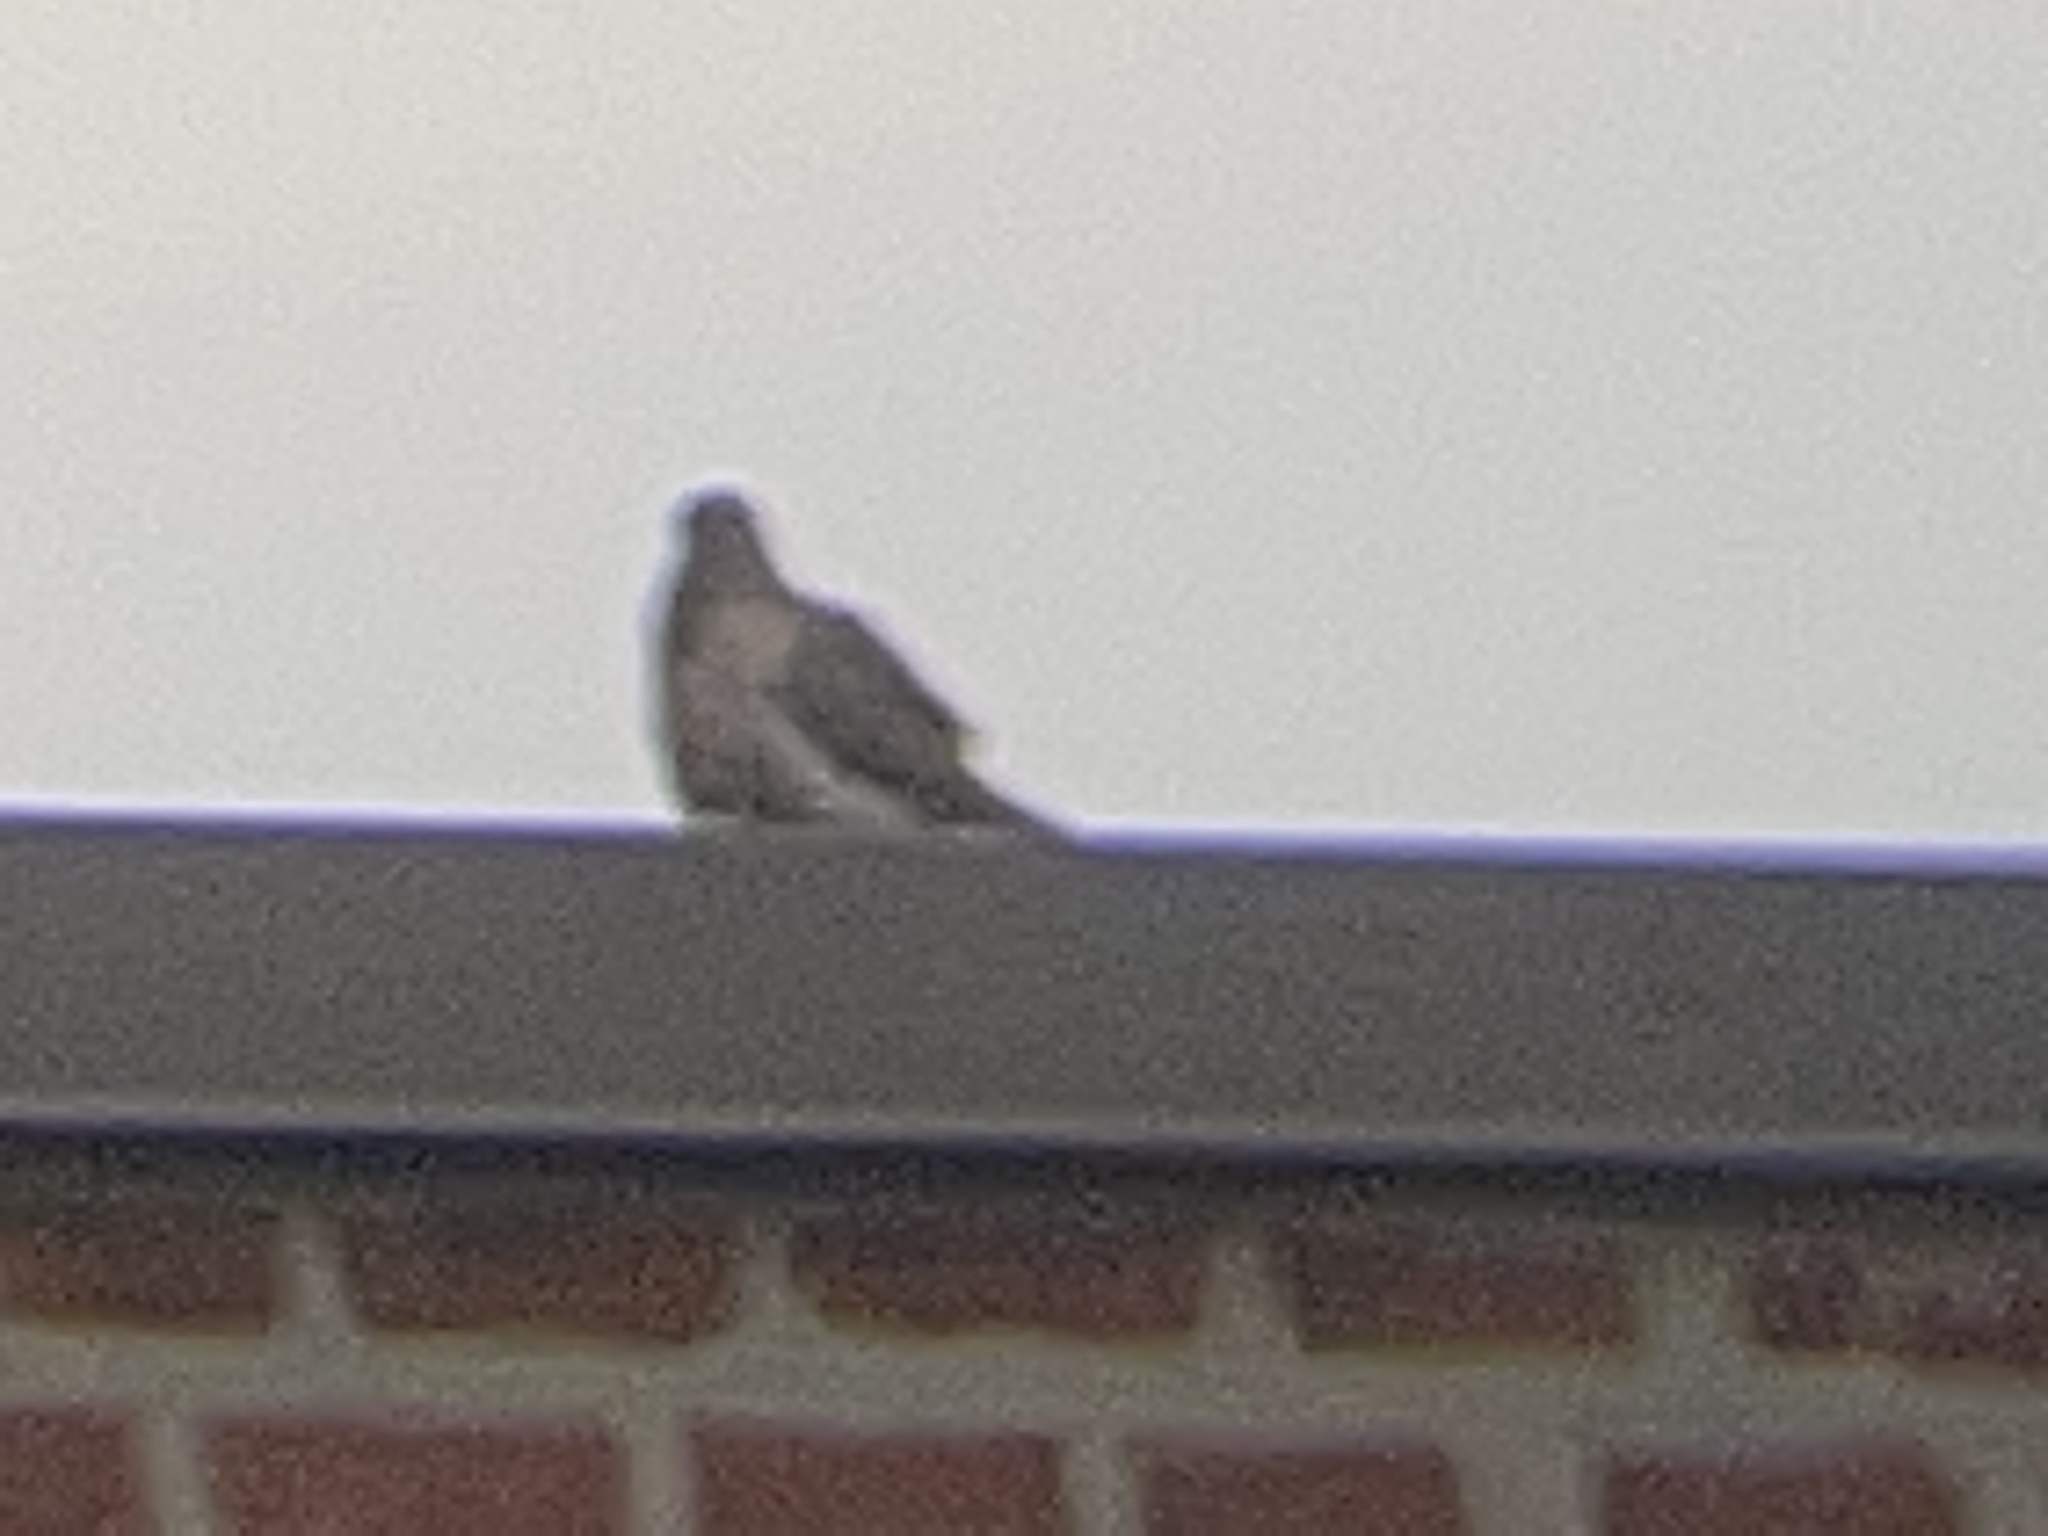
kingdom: Animalia
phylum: Chordata
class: Aves
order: Columbiformes
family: Columbidae
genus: Zenaida
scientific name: Zenaida macroura
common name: Mourning dove
